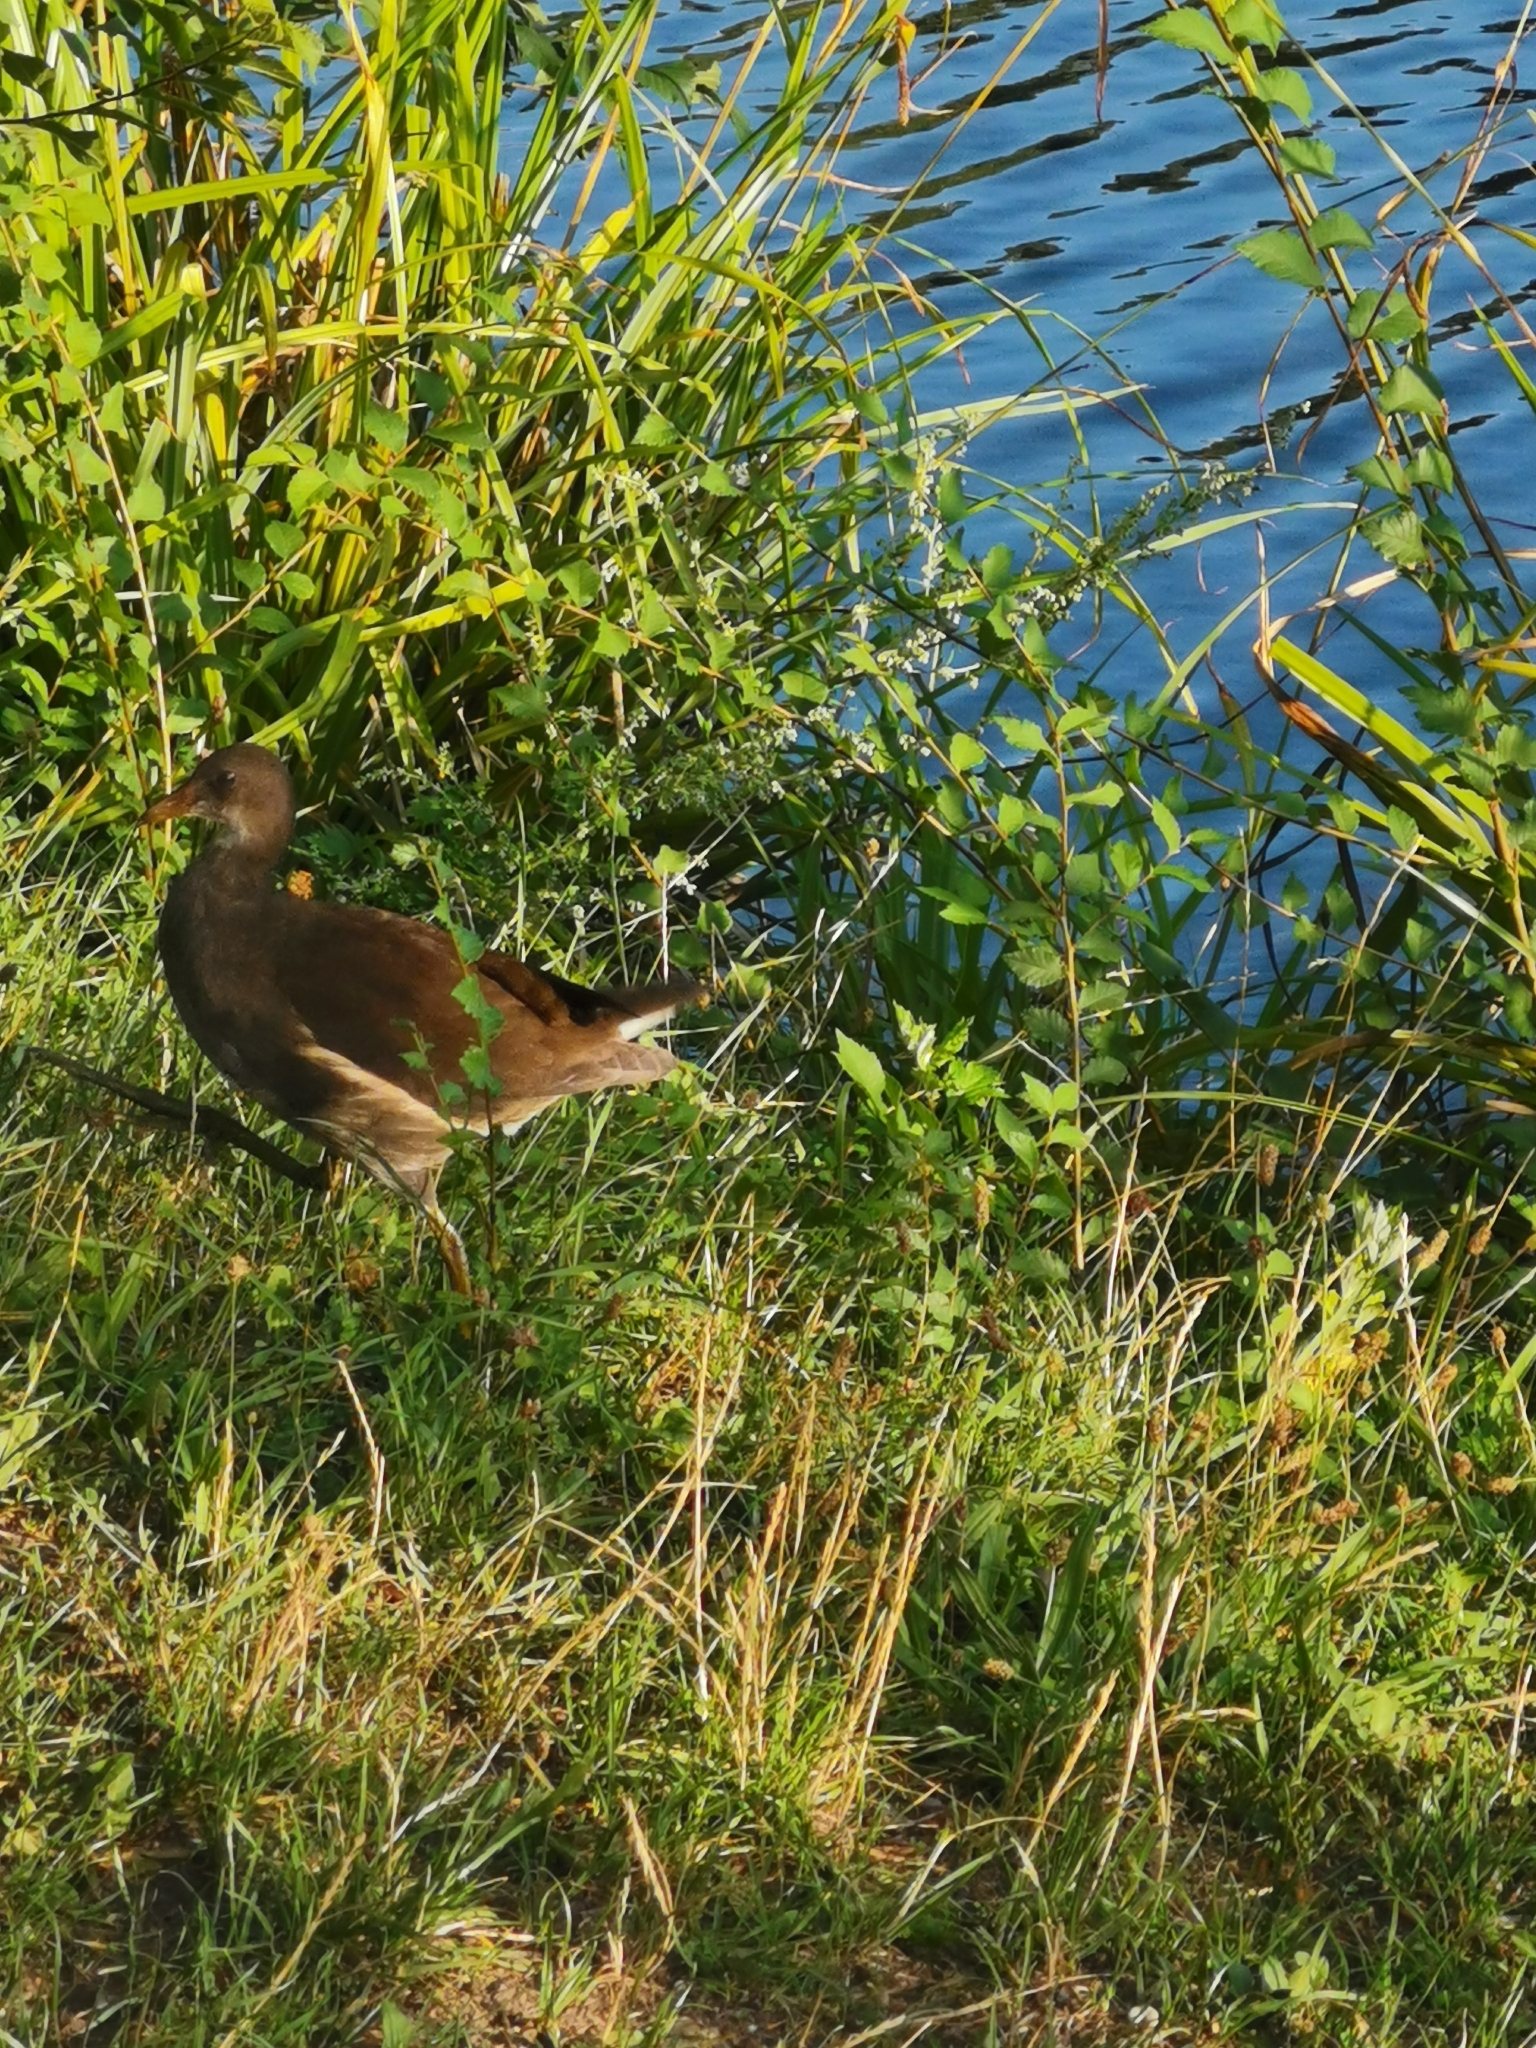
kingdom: Animalia
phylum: Chordata
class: Aves
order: Gruiformes
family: Rallidae
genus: Gallinula
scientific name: Gallinula chloropus
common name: Common moorhen
